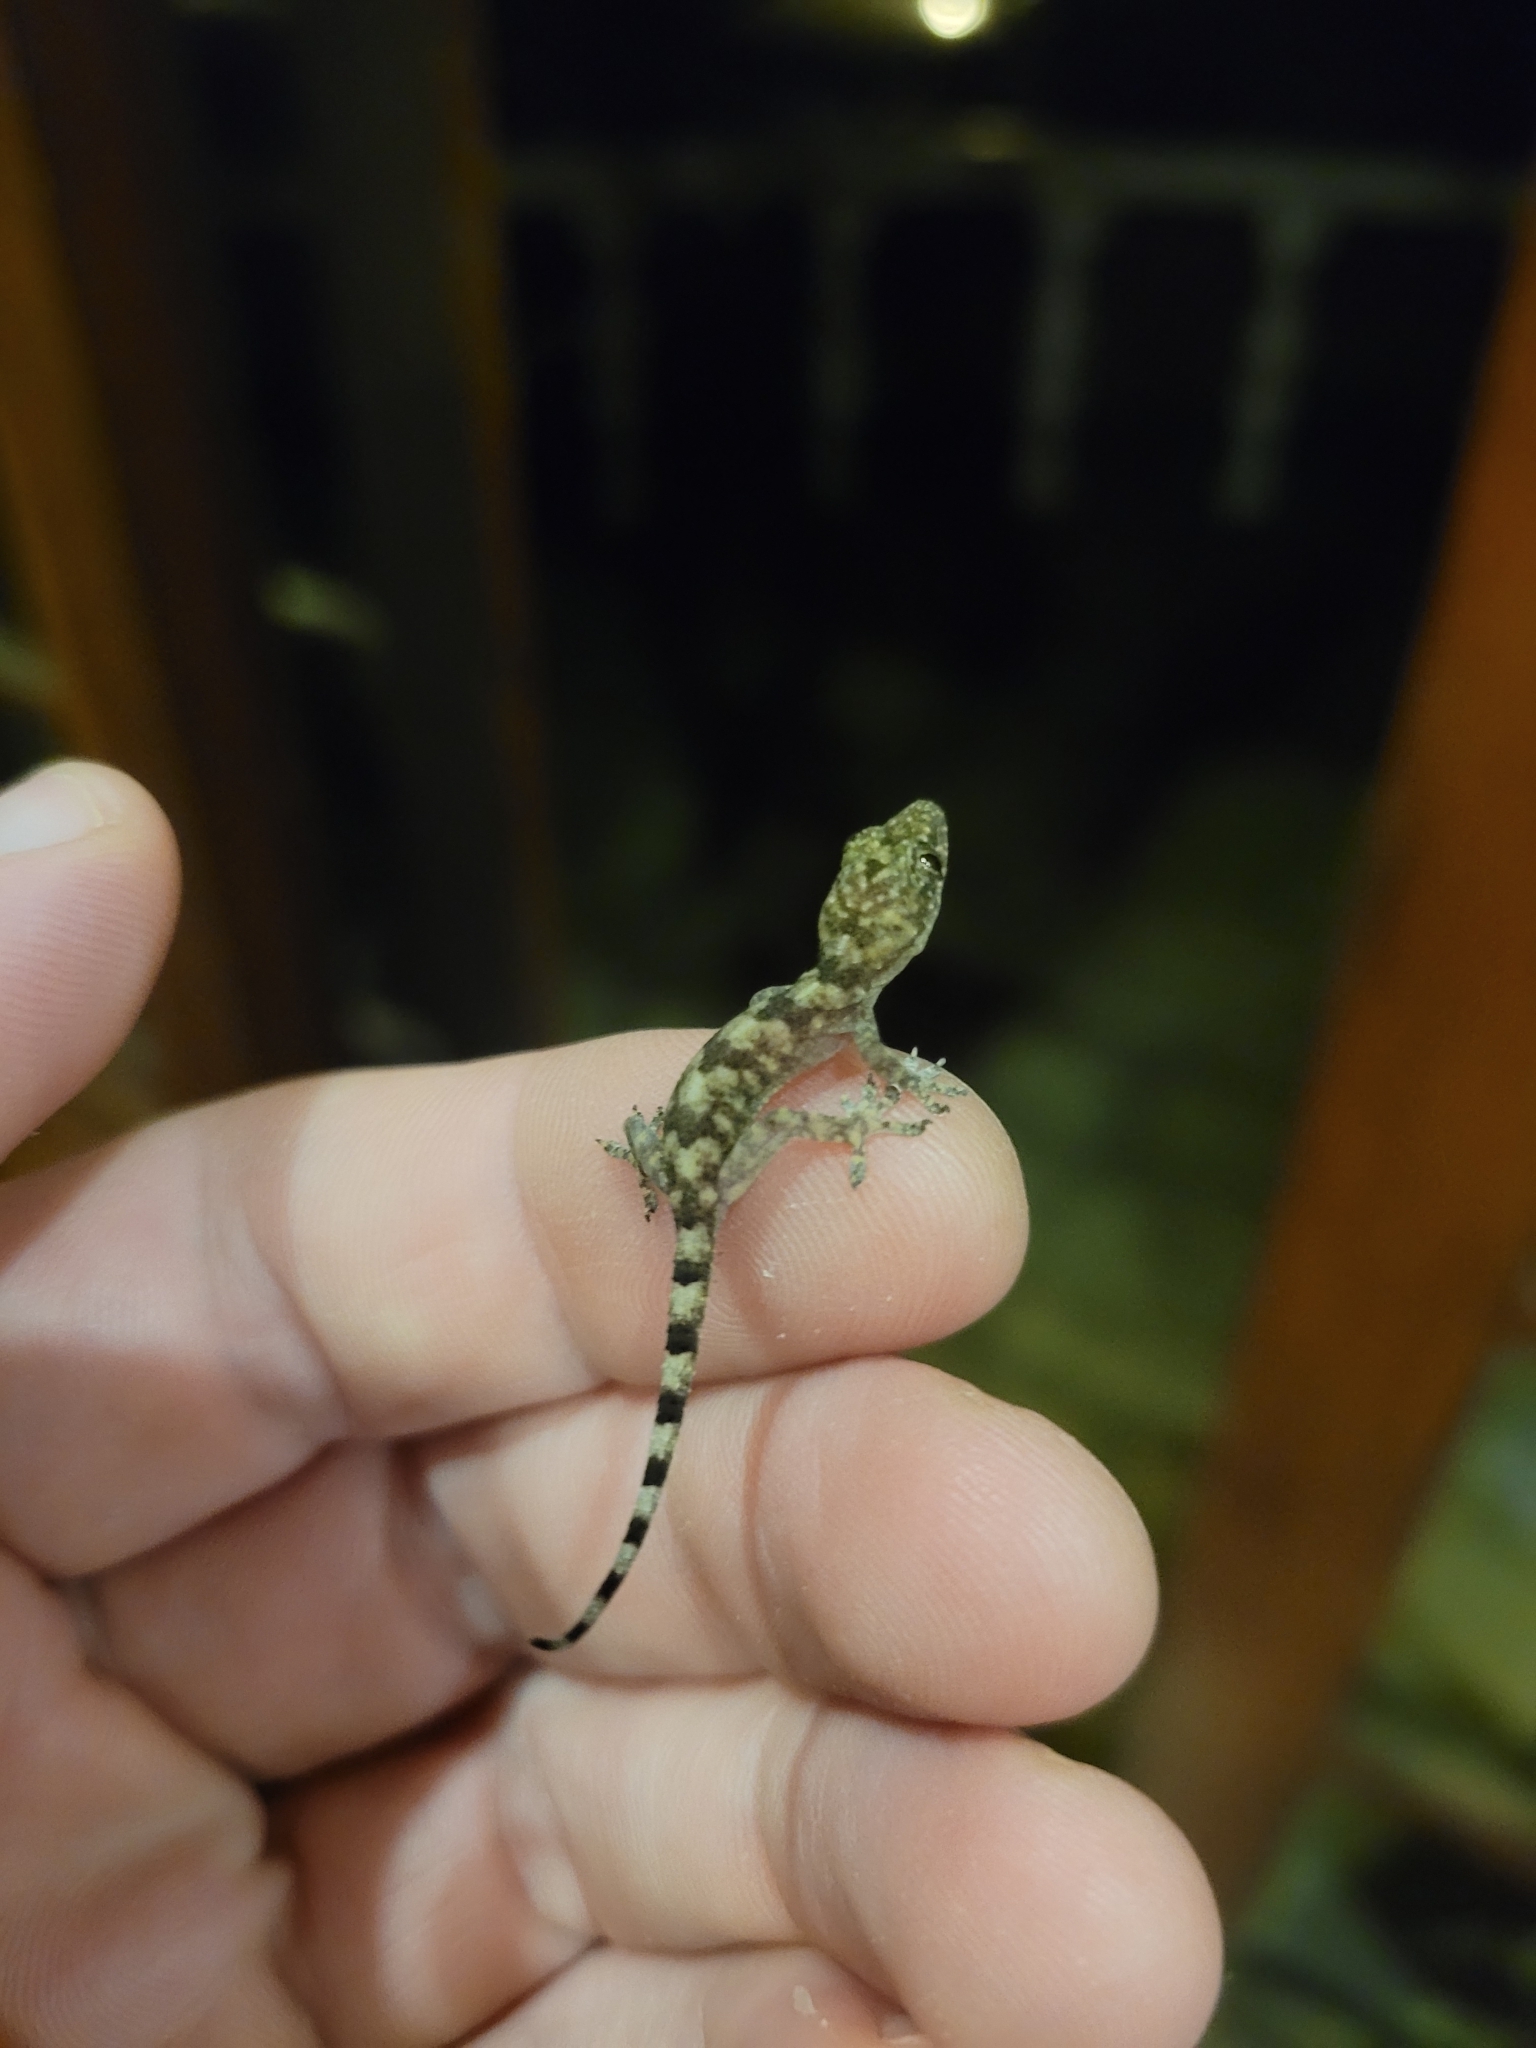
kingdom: Animalia
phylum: Chordata
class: Squamata
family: Gekkonidae
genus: Hemidactylus
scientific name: Hemidactylus mabouia
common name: House gecko
